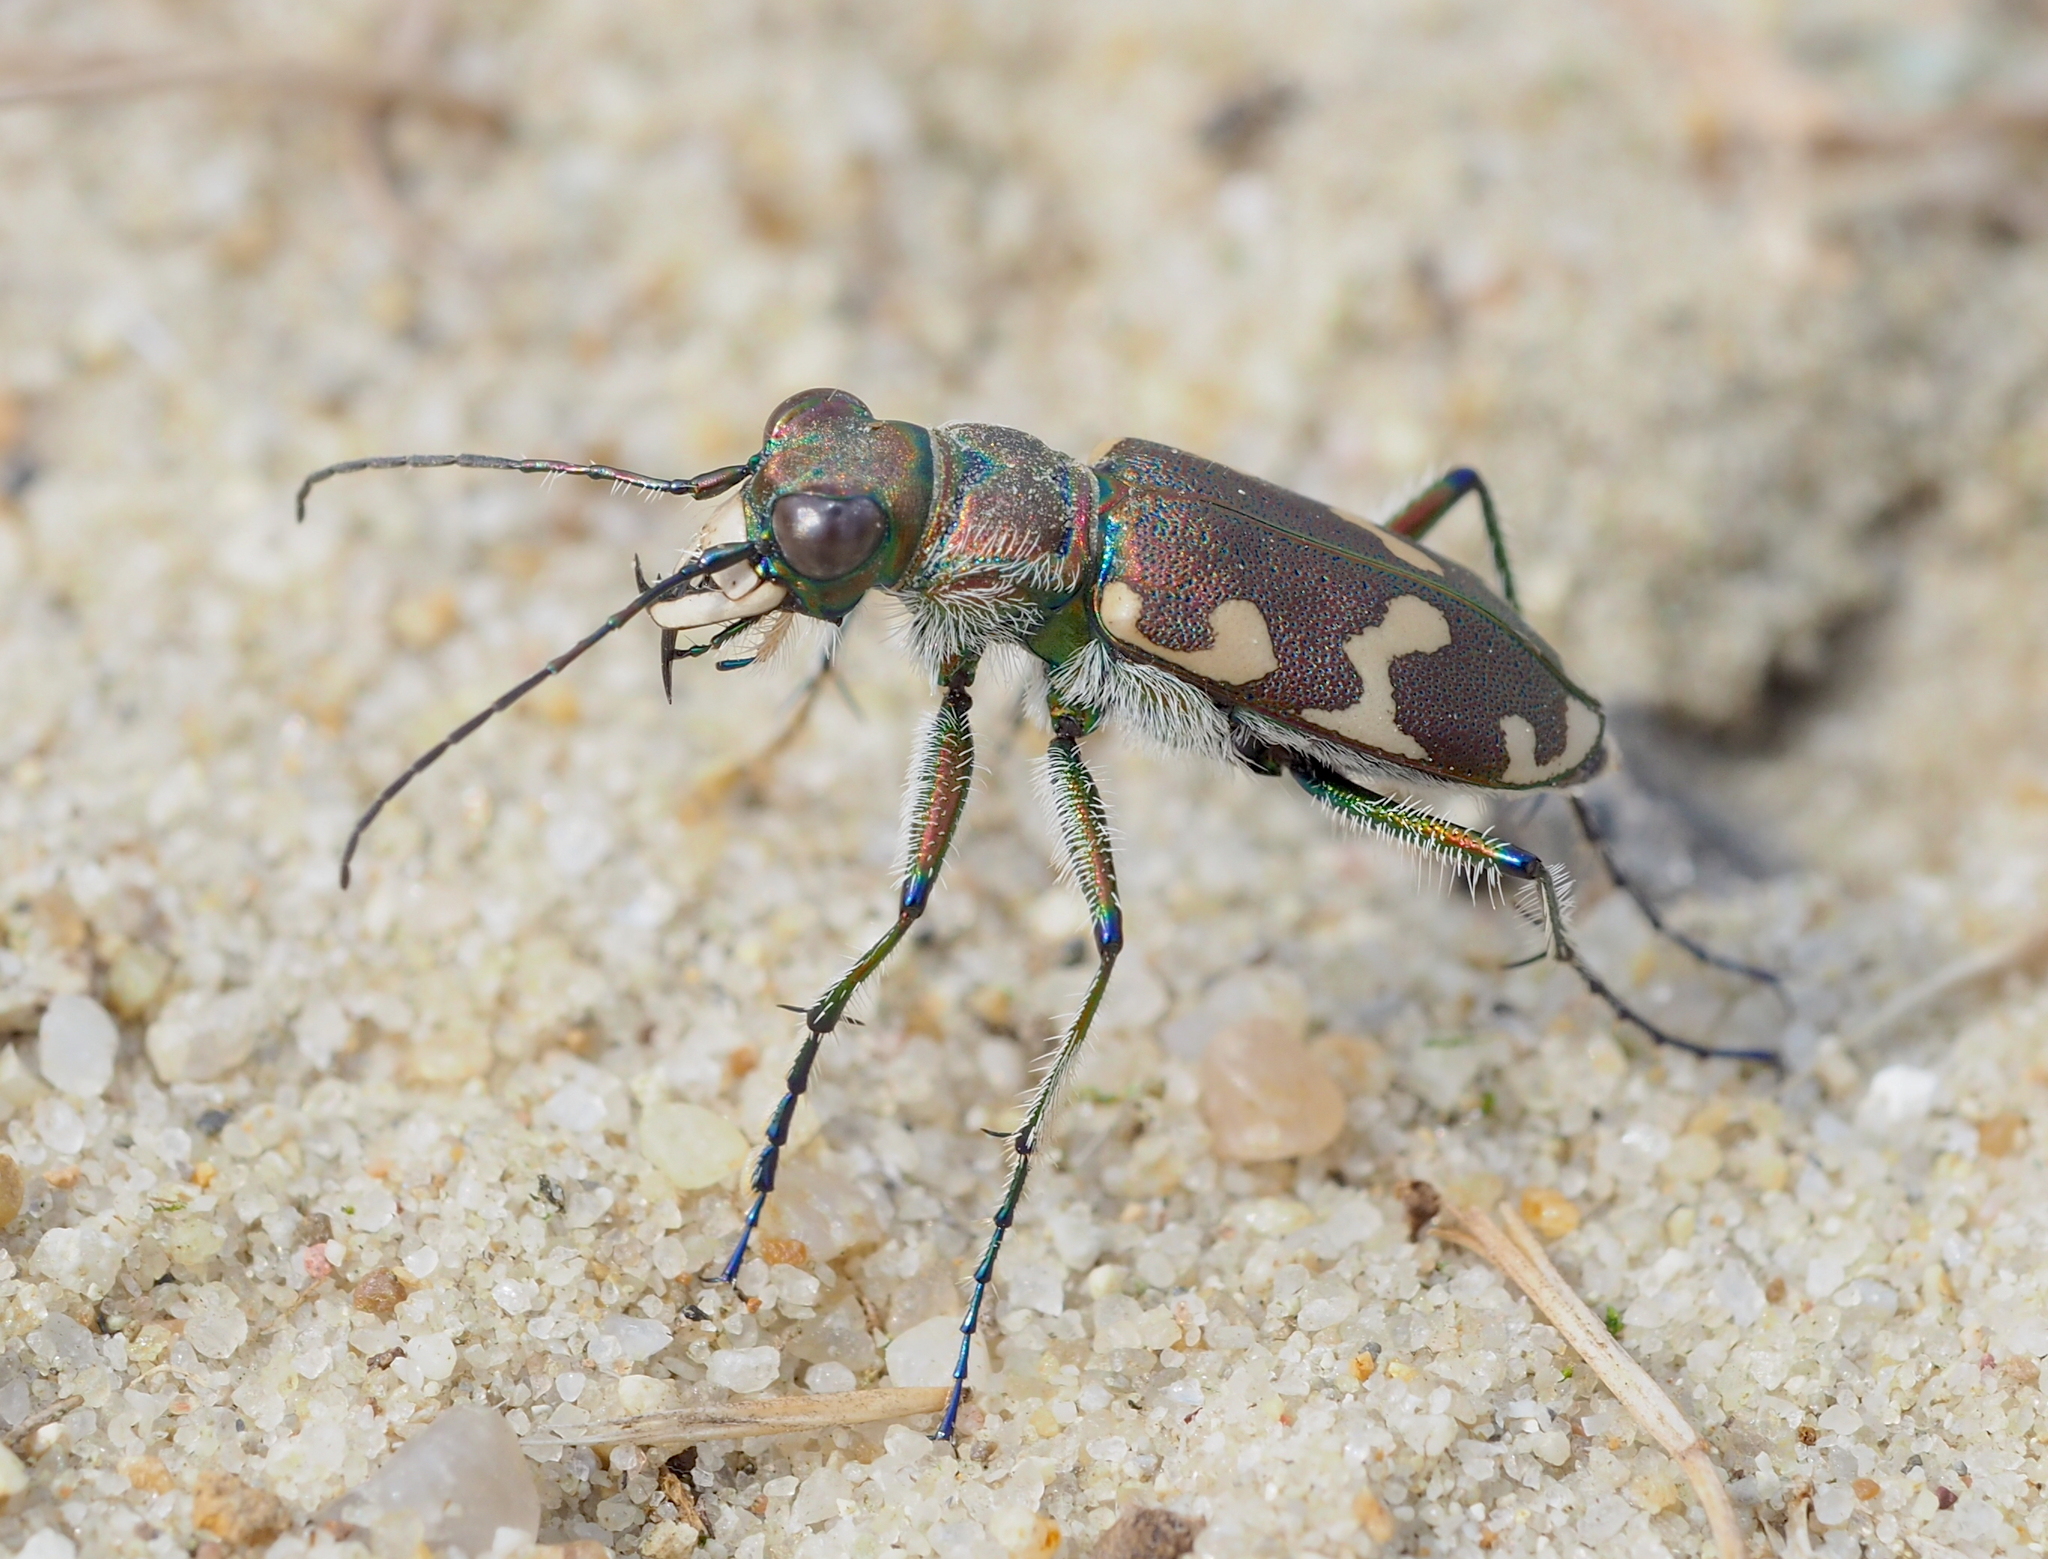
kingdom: Animalia
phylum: Arthropoda
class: Insecta
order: Coleoptera
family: Carabidae
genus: Cicindela
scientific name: Cicindela hybrida
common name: Northern dune tiger beetle
